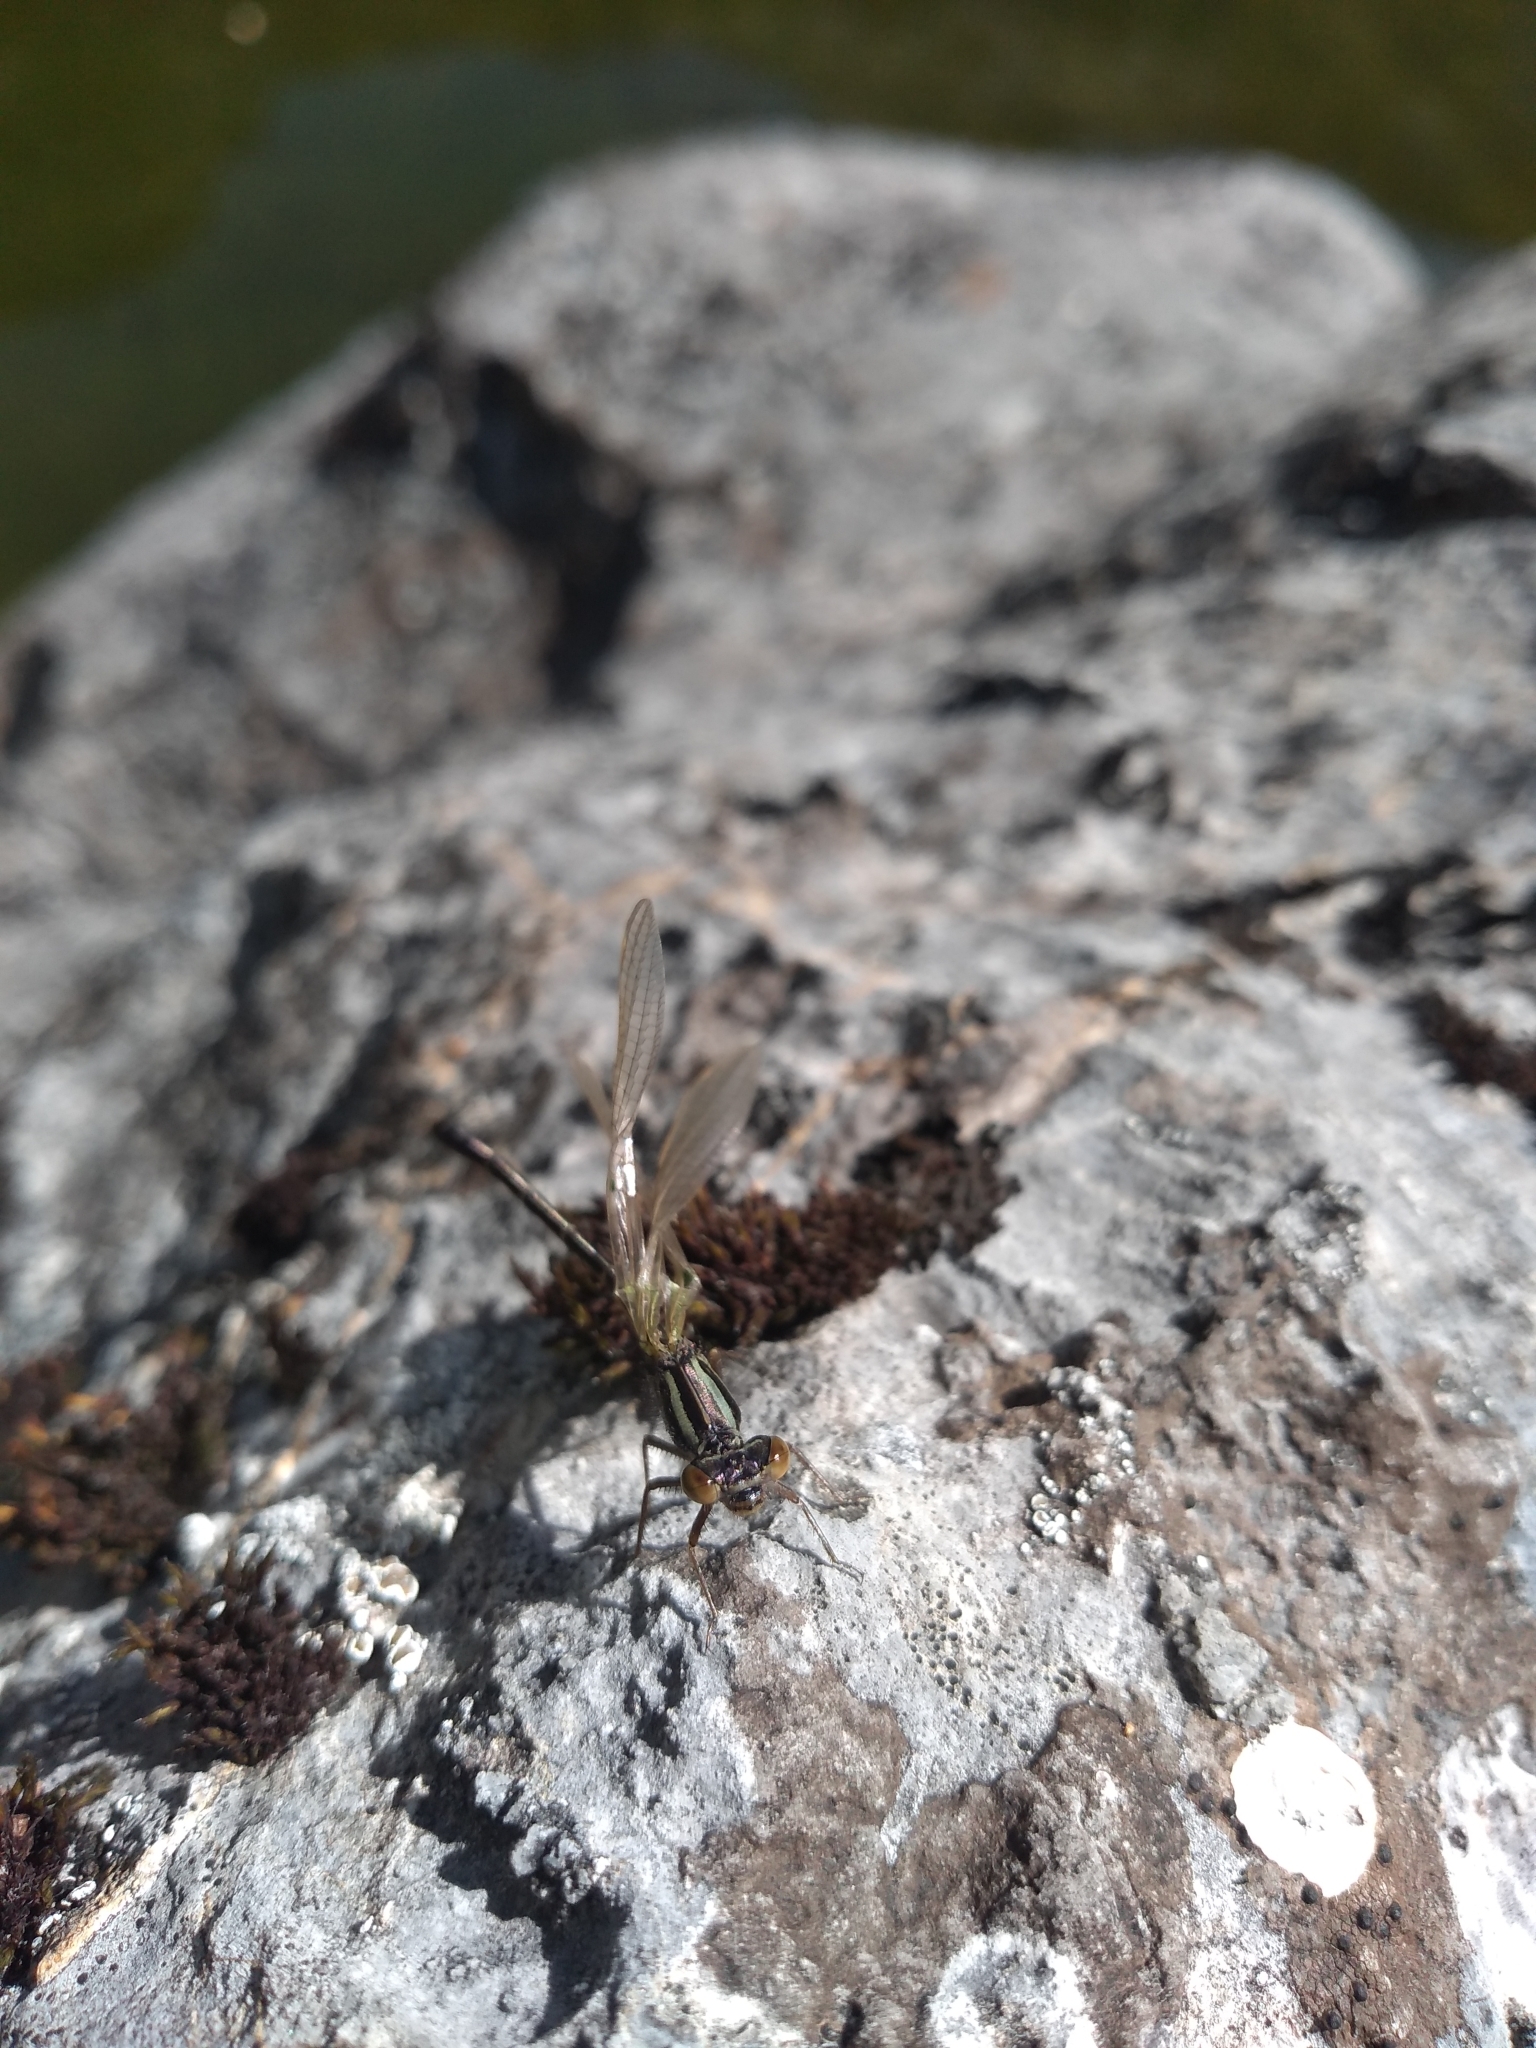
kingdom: Animalia
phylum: Arthropoda
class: Insecta
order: Odonata
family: Coenagrionidae
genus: Xanthocnemis
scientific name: Xanthocnemis zealandica
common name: Common redcoat damselfly
